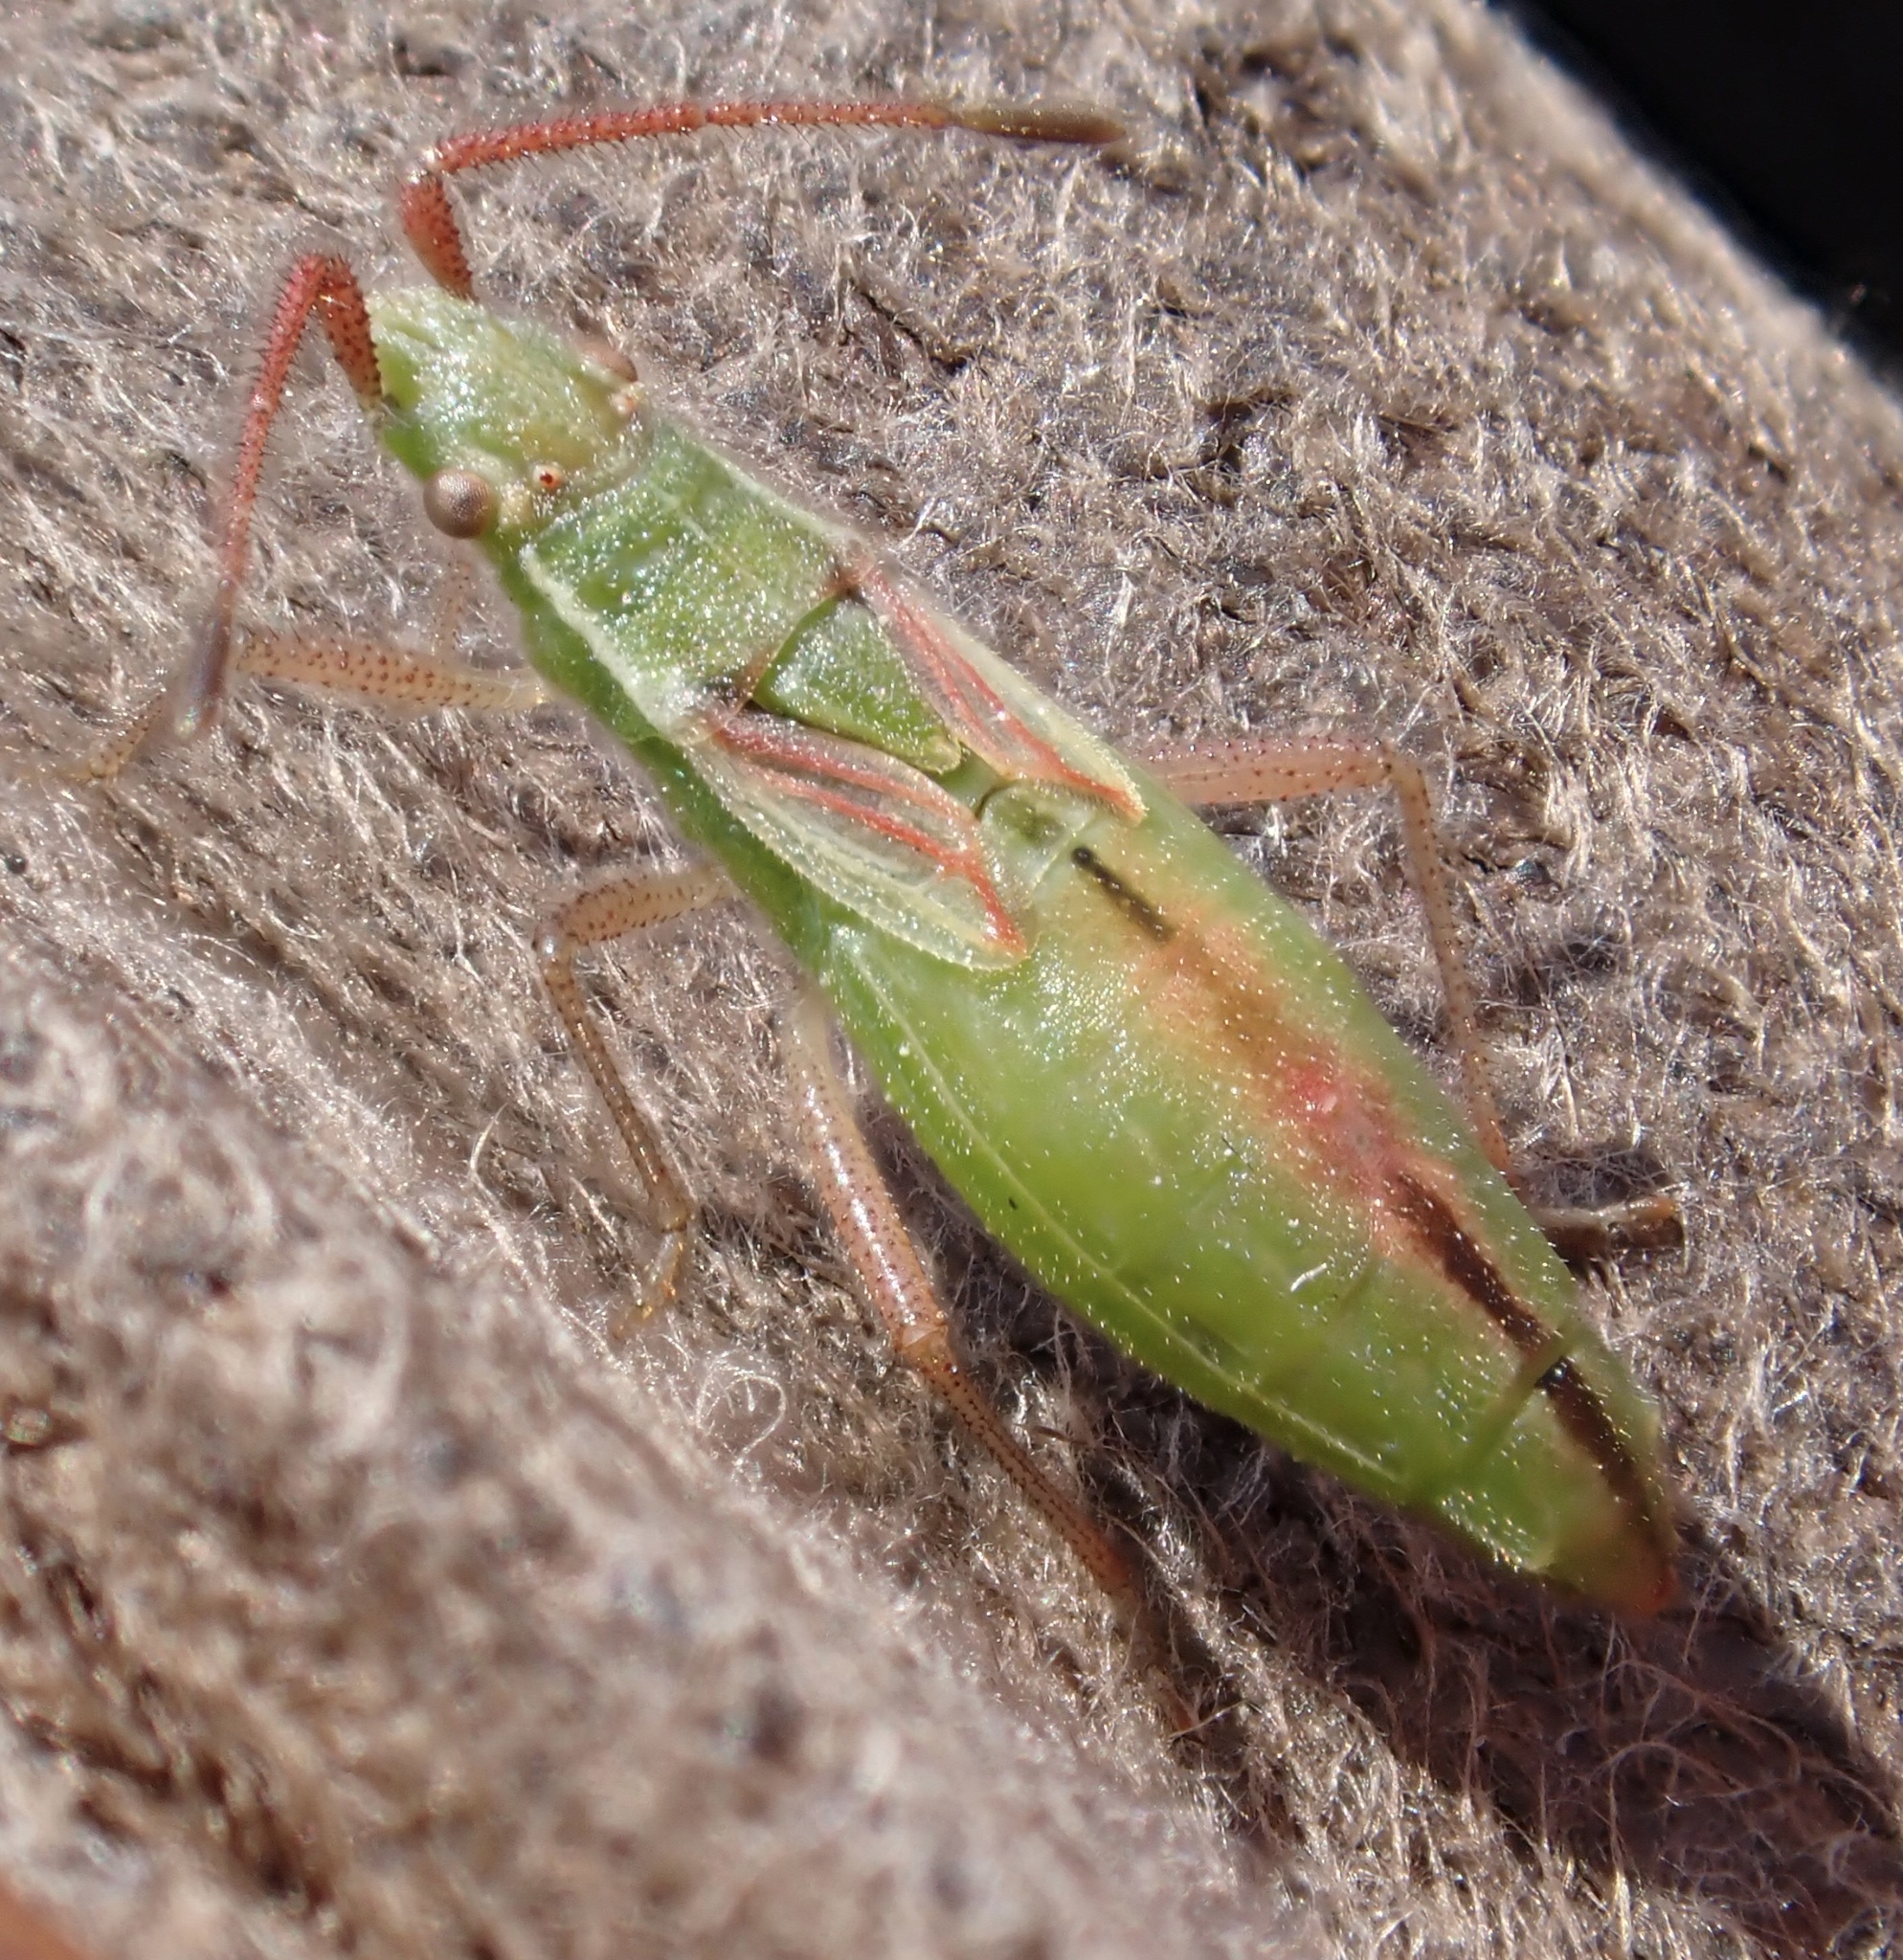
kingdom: Animalia
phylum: Arthropoda
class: Insecta
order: Hemiptera
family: Rhopalidae
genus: Myrmus
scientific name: Myrmus miriformis
